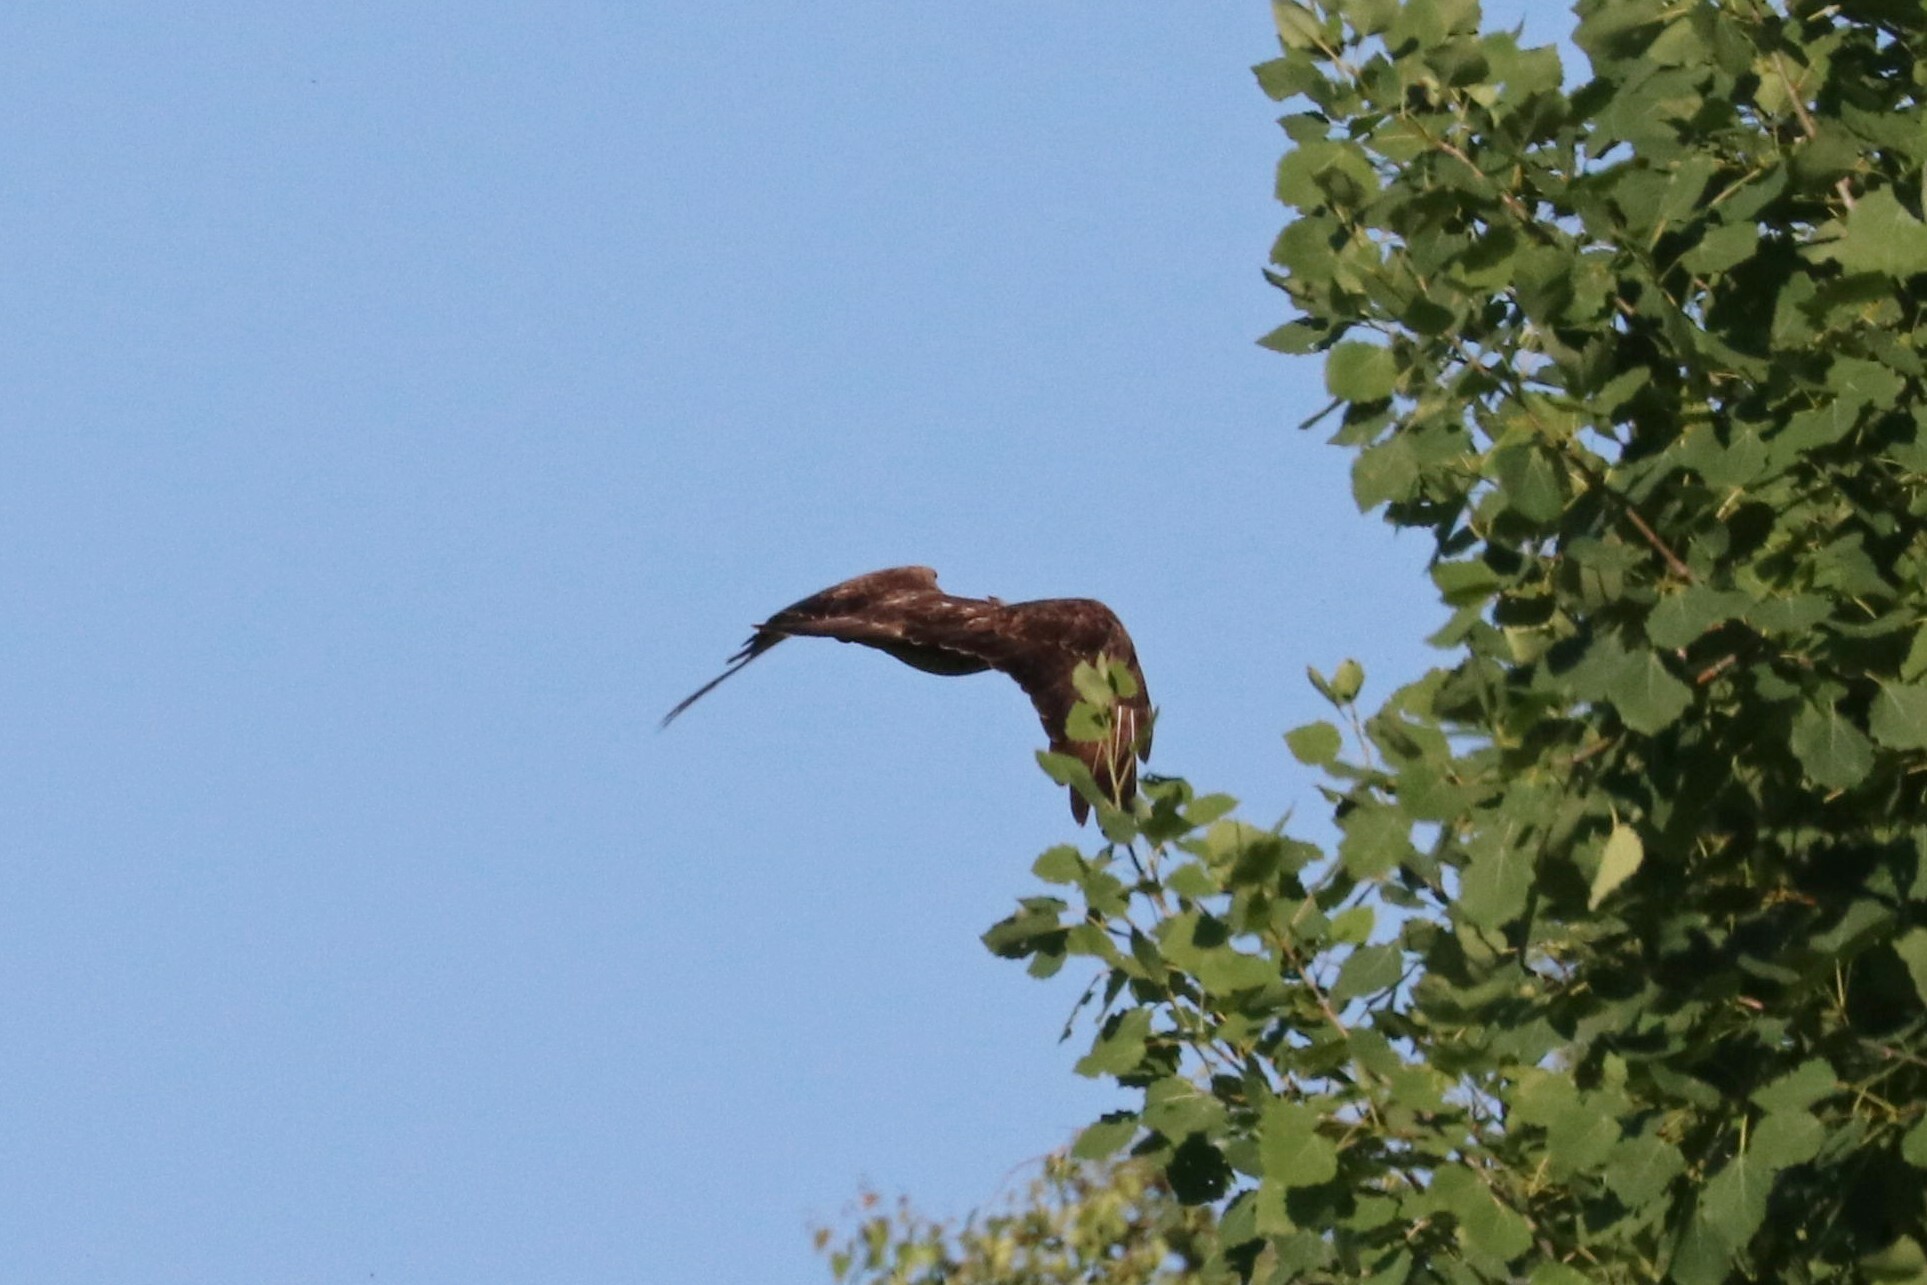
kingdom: Animalia
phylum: Chordata
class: Aves
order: Accipitriformes
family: Accipitridae
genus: Buteo
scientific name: Buteo buteo
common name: Common buzzard
